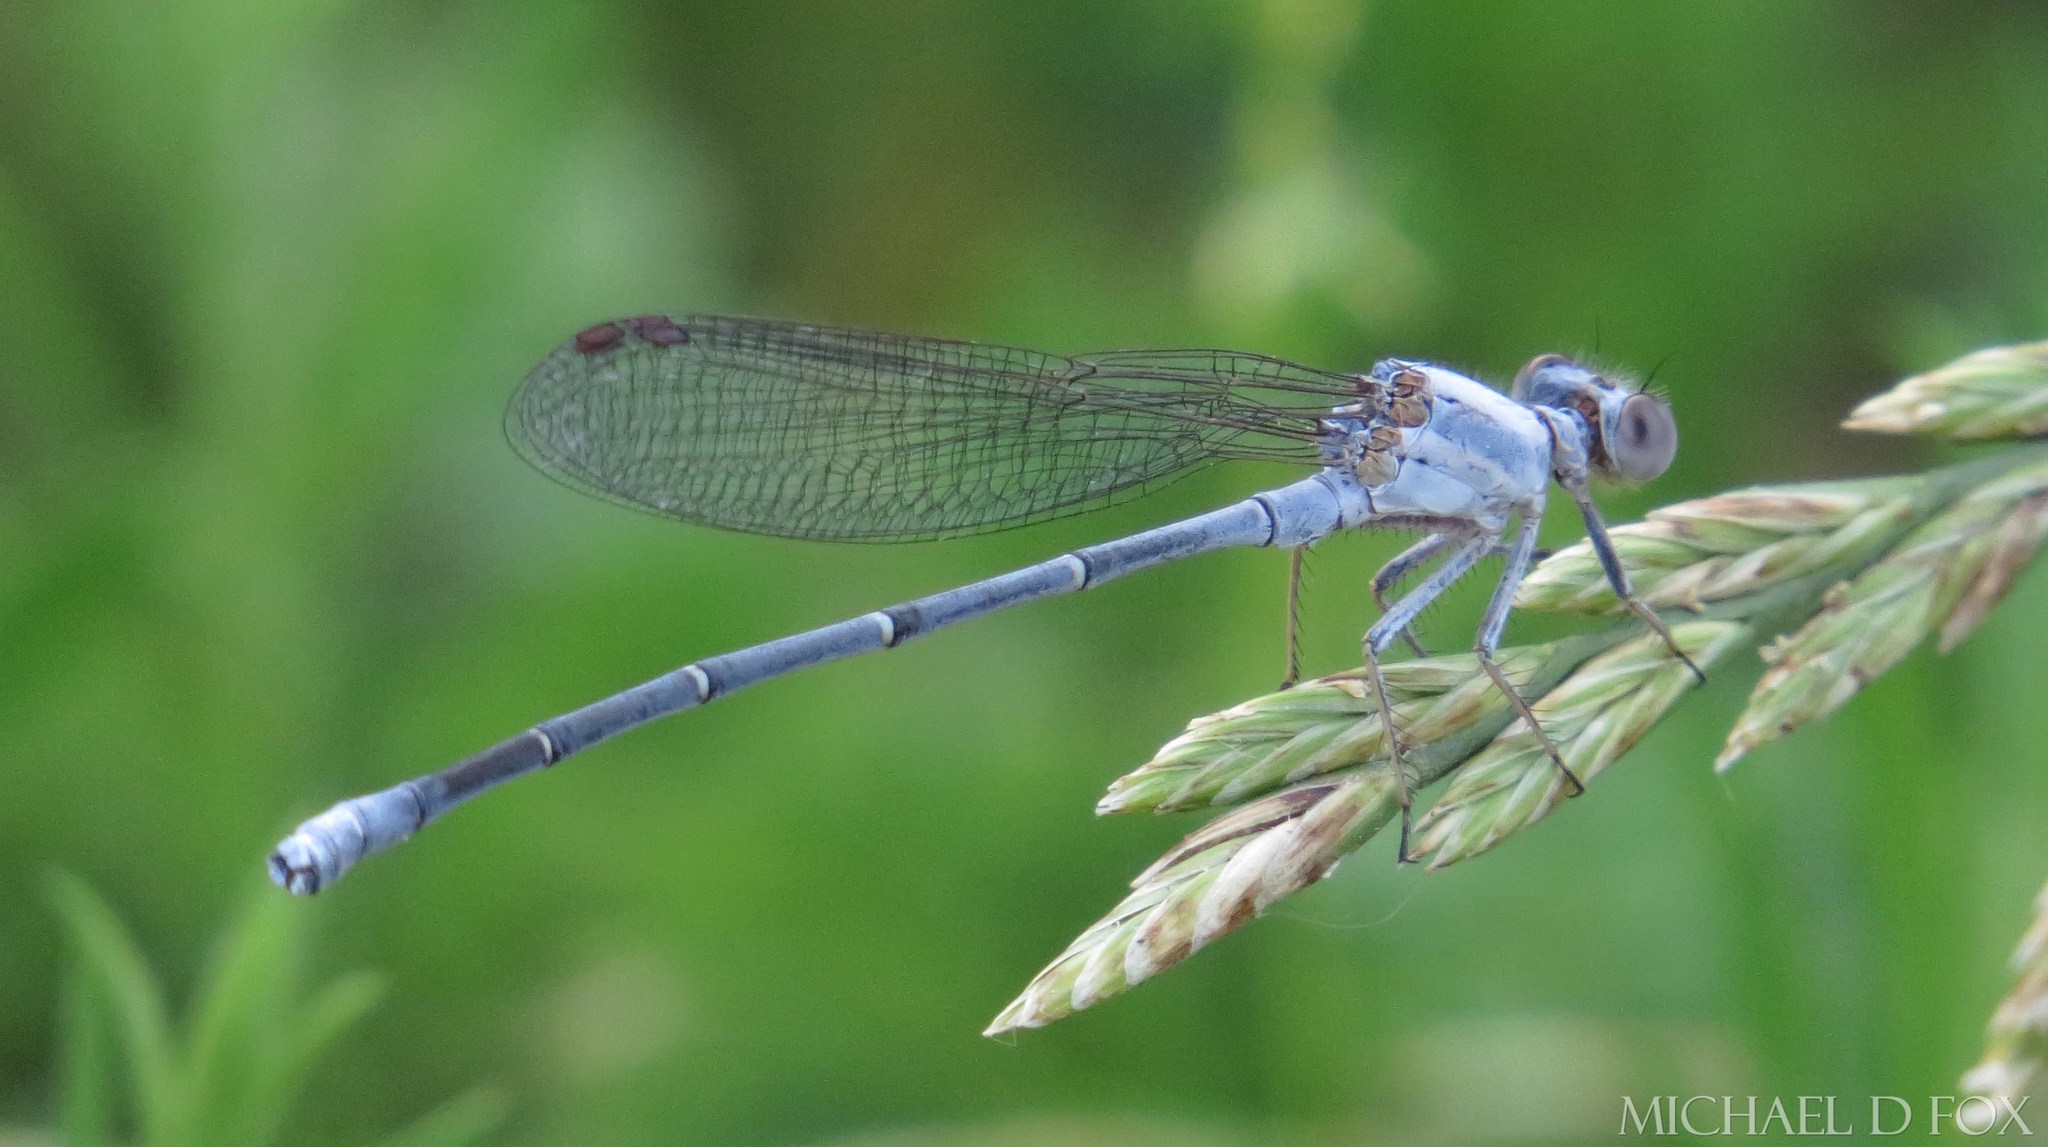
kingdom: Animalia
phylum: Arthropoda
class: Insecta
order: Odonata
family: Coenagrionidae
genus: Argia
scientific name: Argia moesta
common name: Powdered dancer
